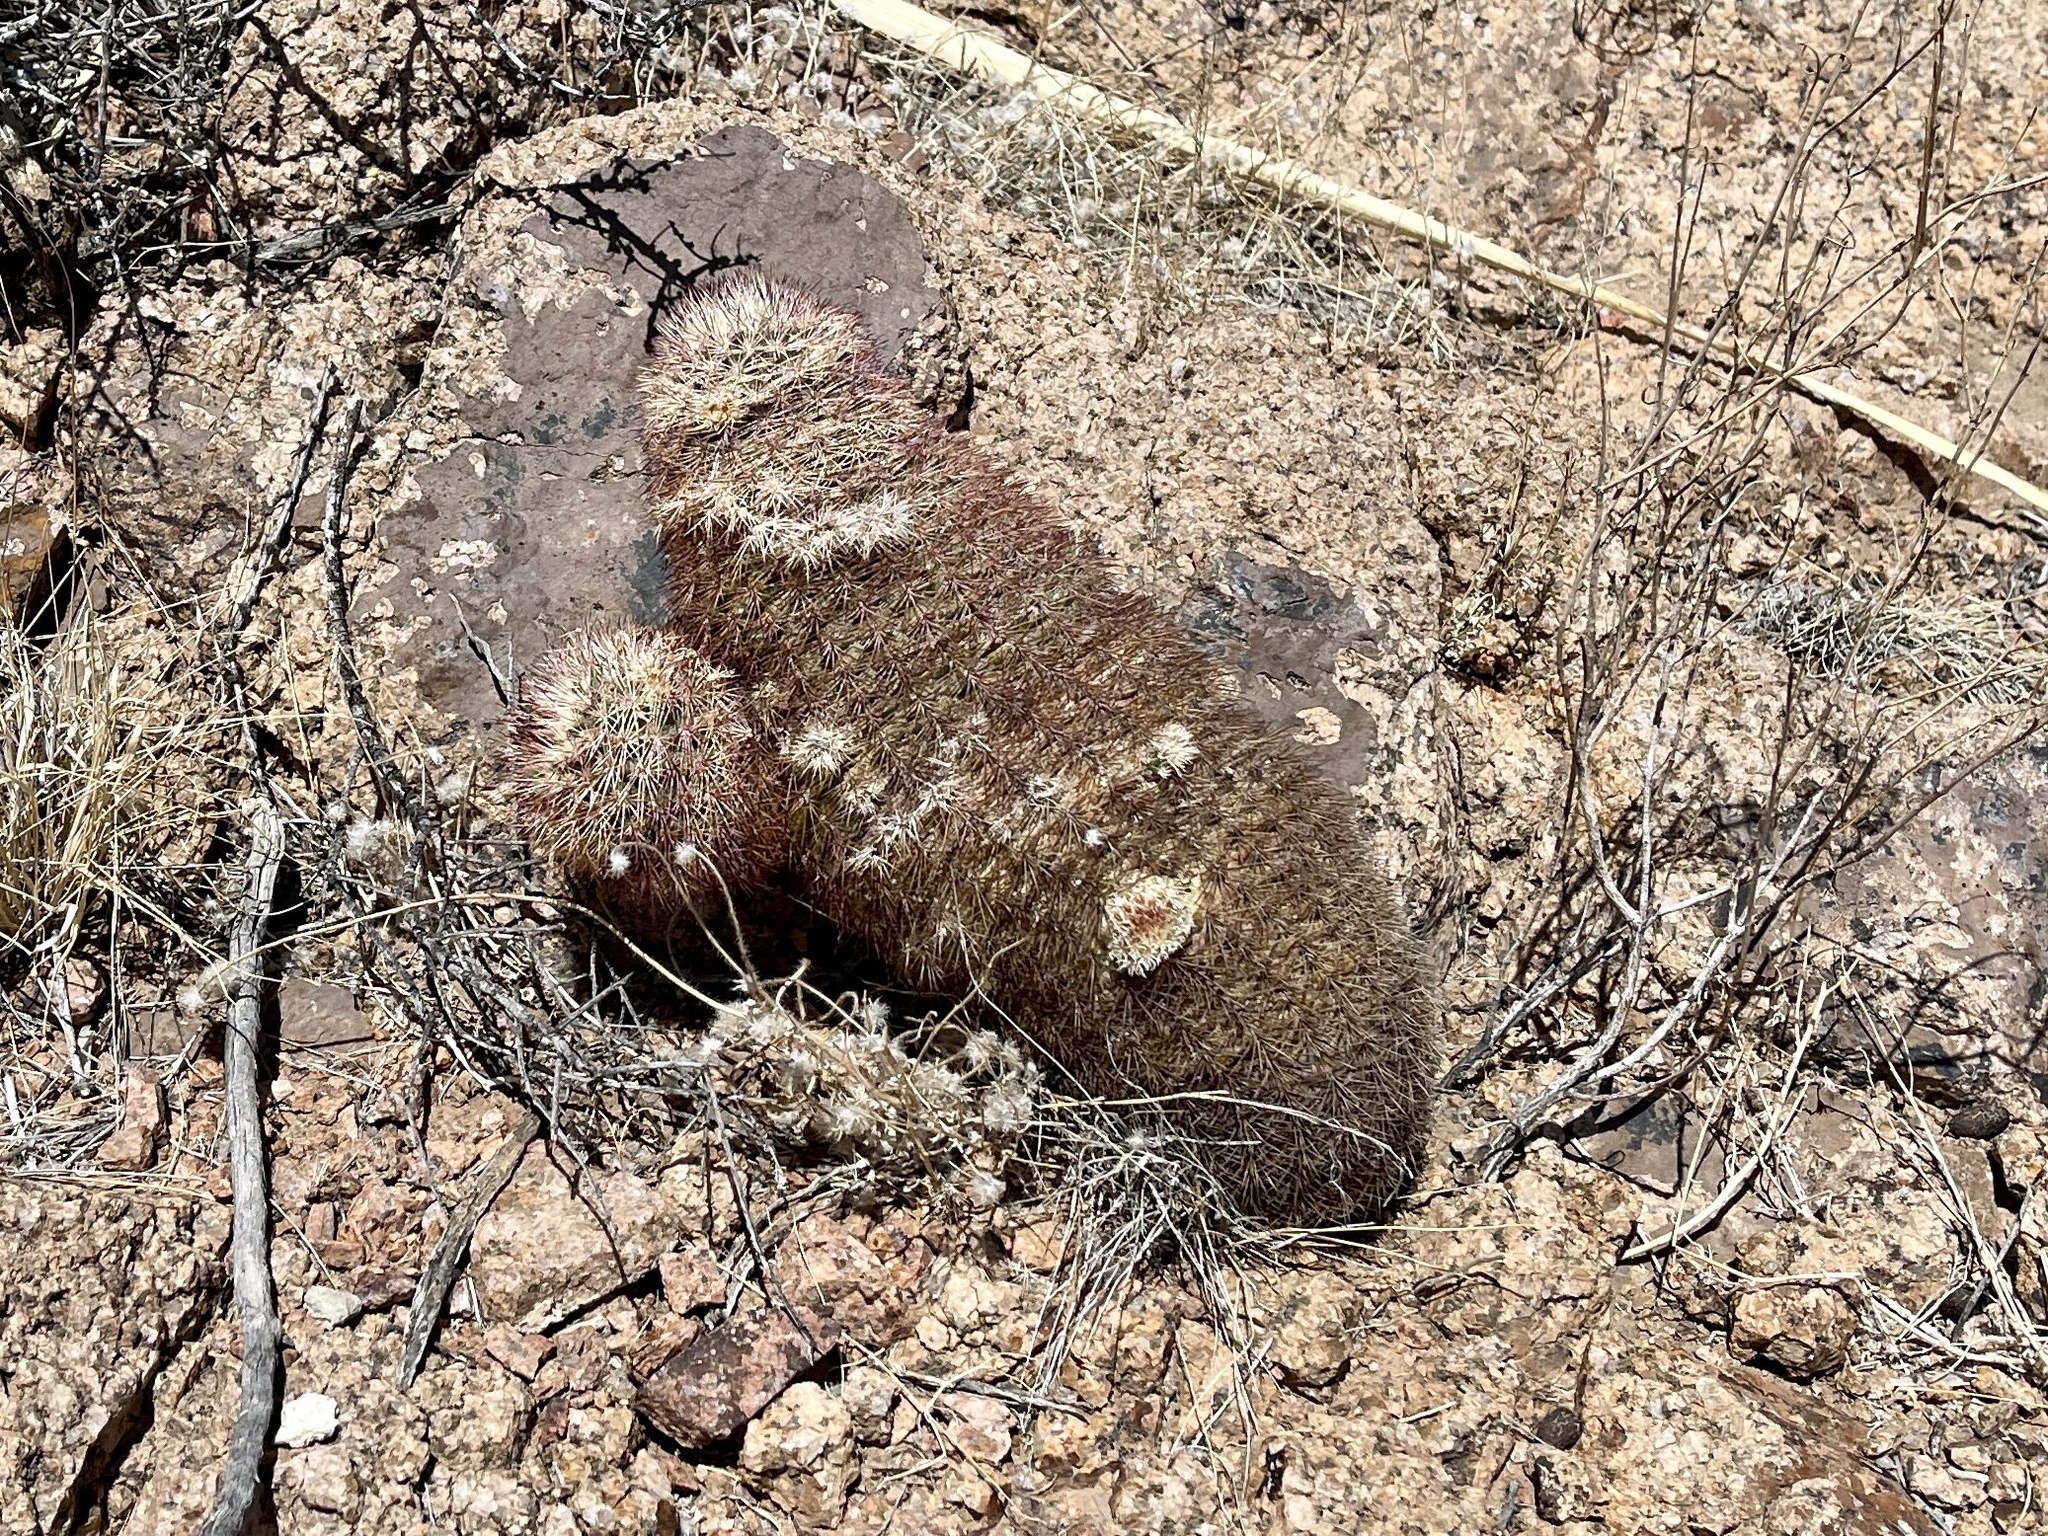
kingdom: Plantae
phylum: Tracheophyta
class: Magnoliopsida
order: Caryophyllales
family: Cactaceae
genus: Echinocereus
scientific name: Echinocereus dasyacanthus
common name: Spiny hedgehog cactus
